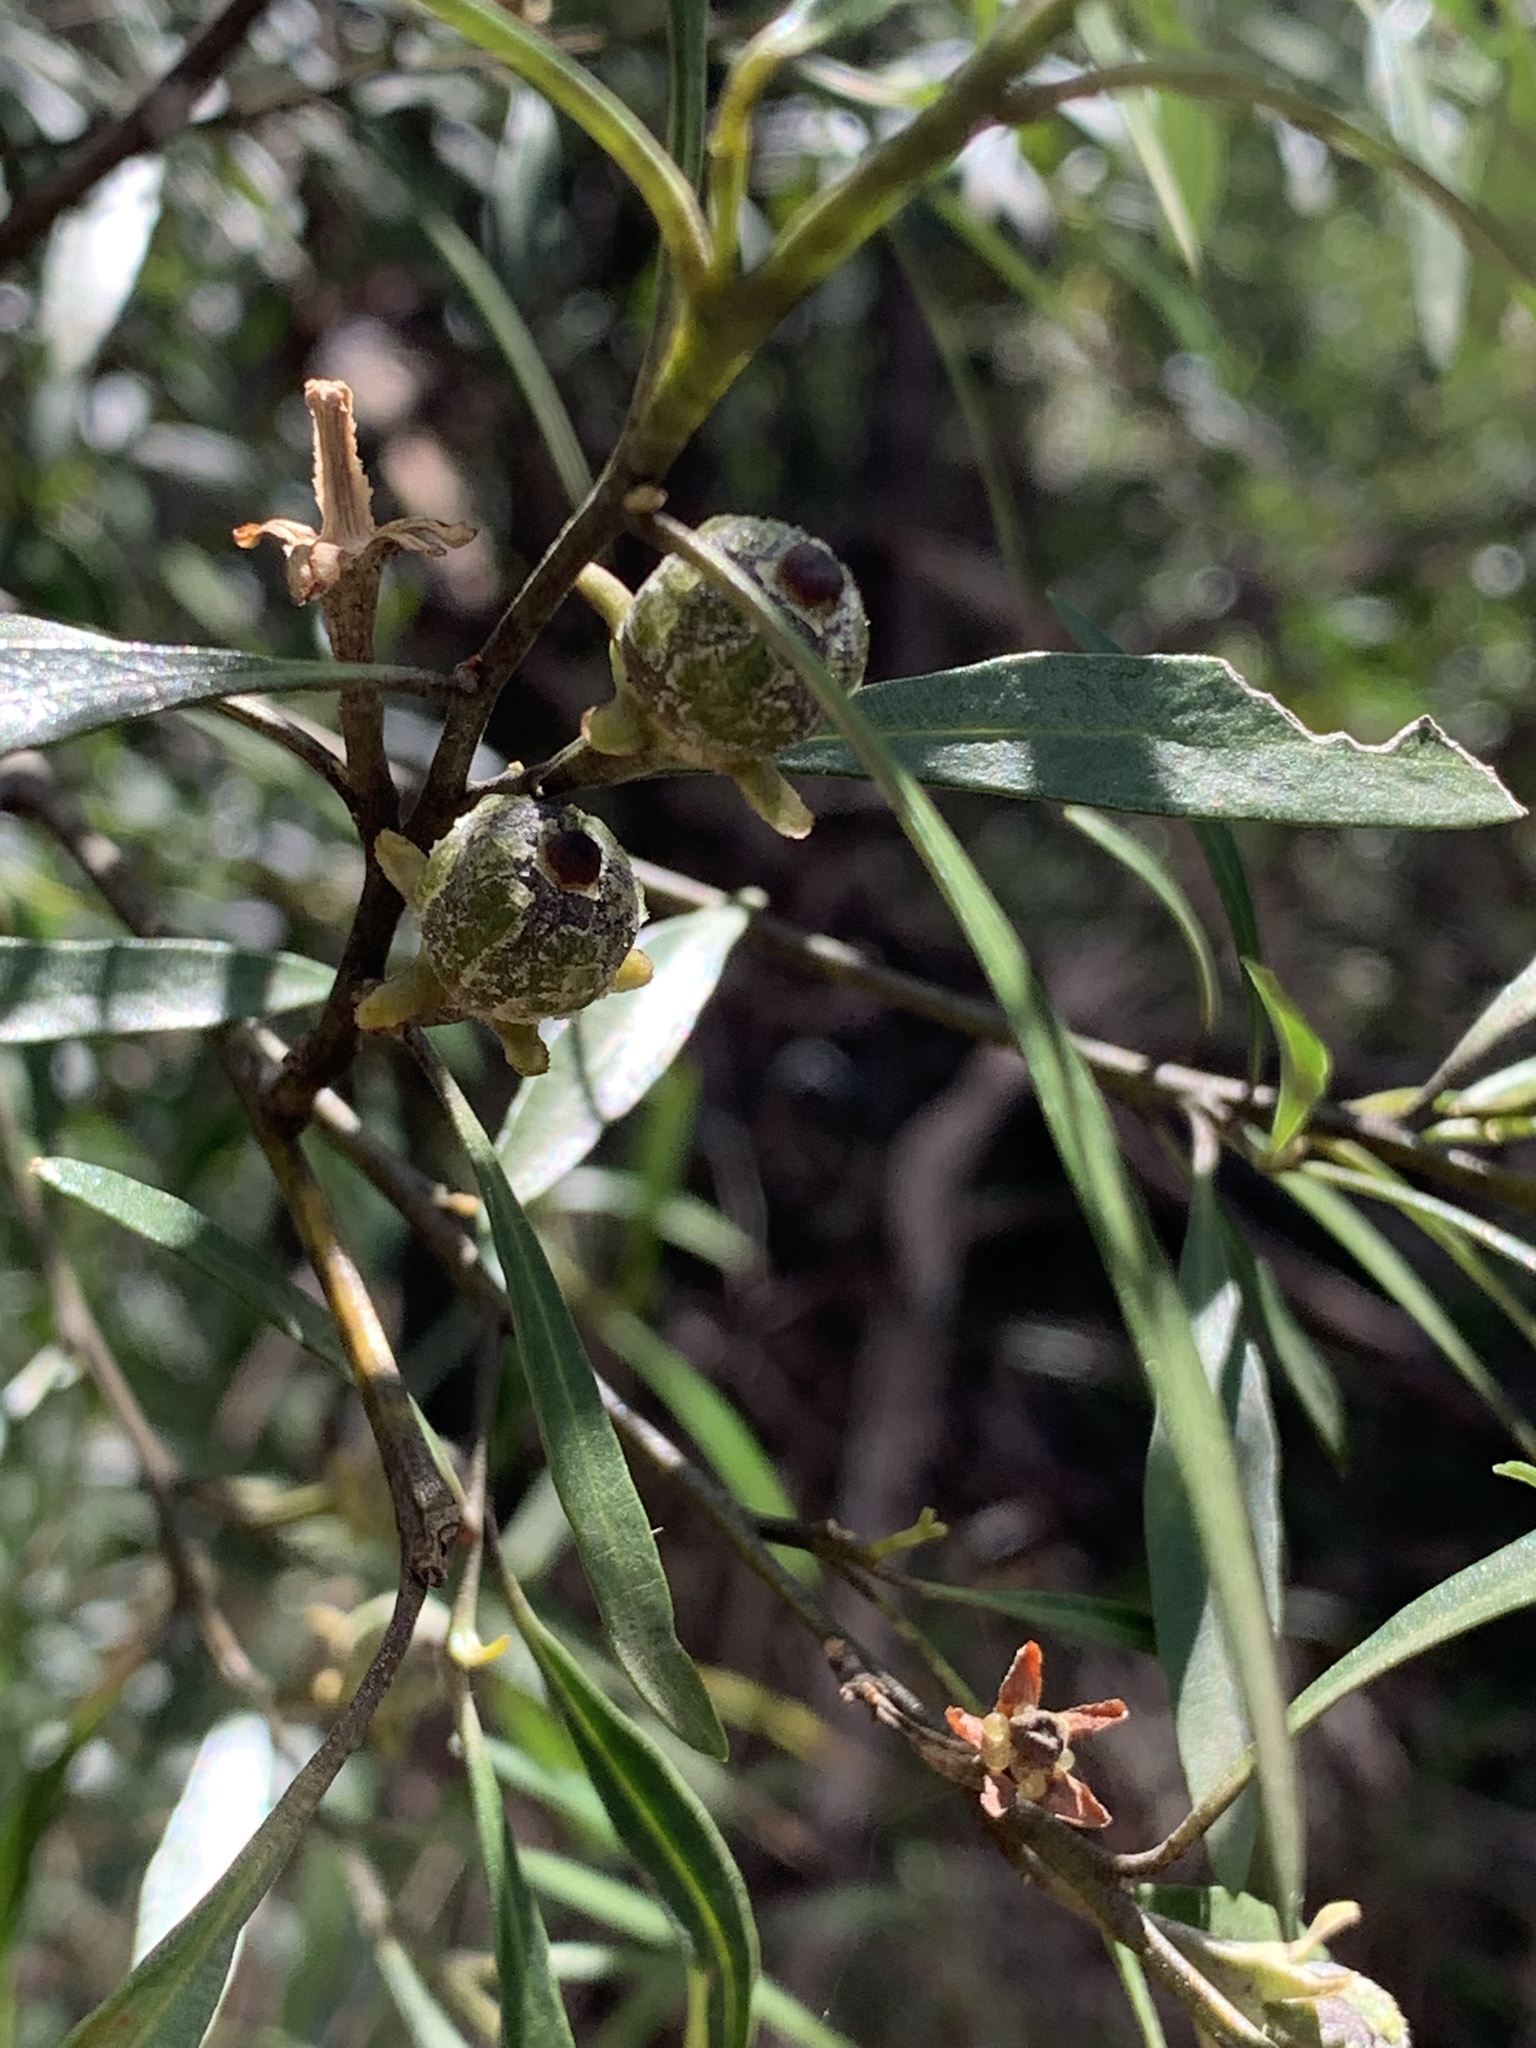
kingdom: Plantae
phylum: Tracheophyta
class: Magnoliopsida
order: Malpighiales
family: Euphorbiaceae
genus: Beyeria
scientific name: Beyeria viscosa
